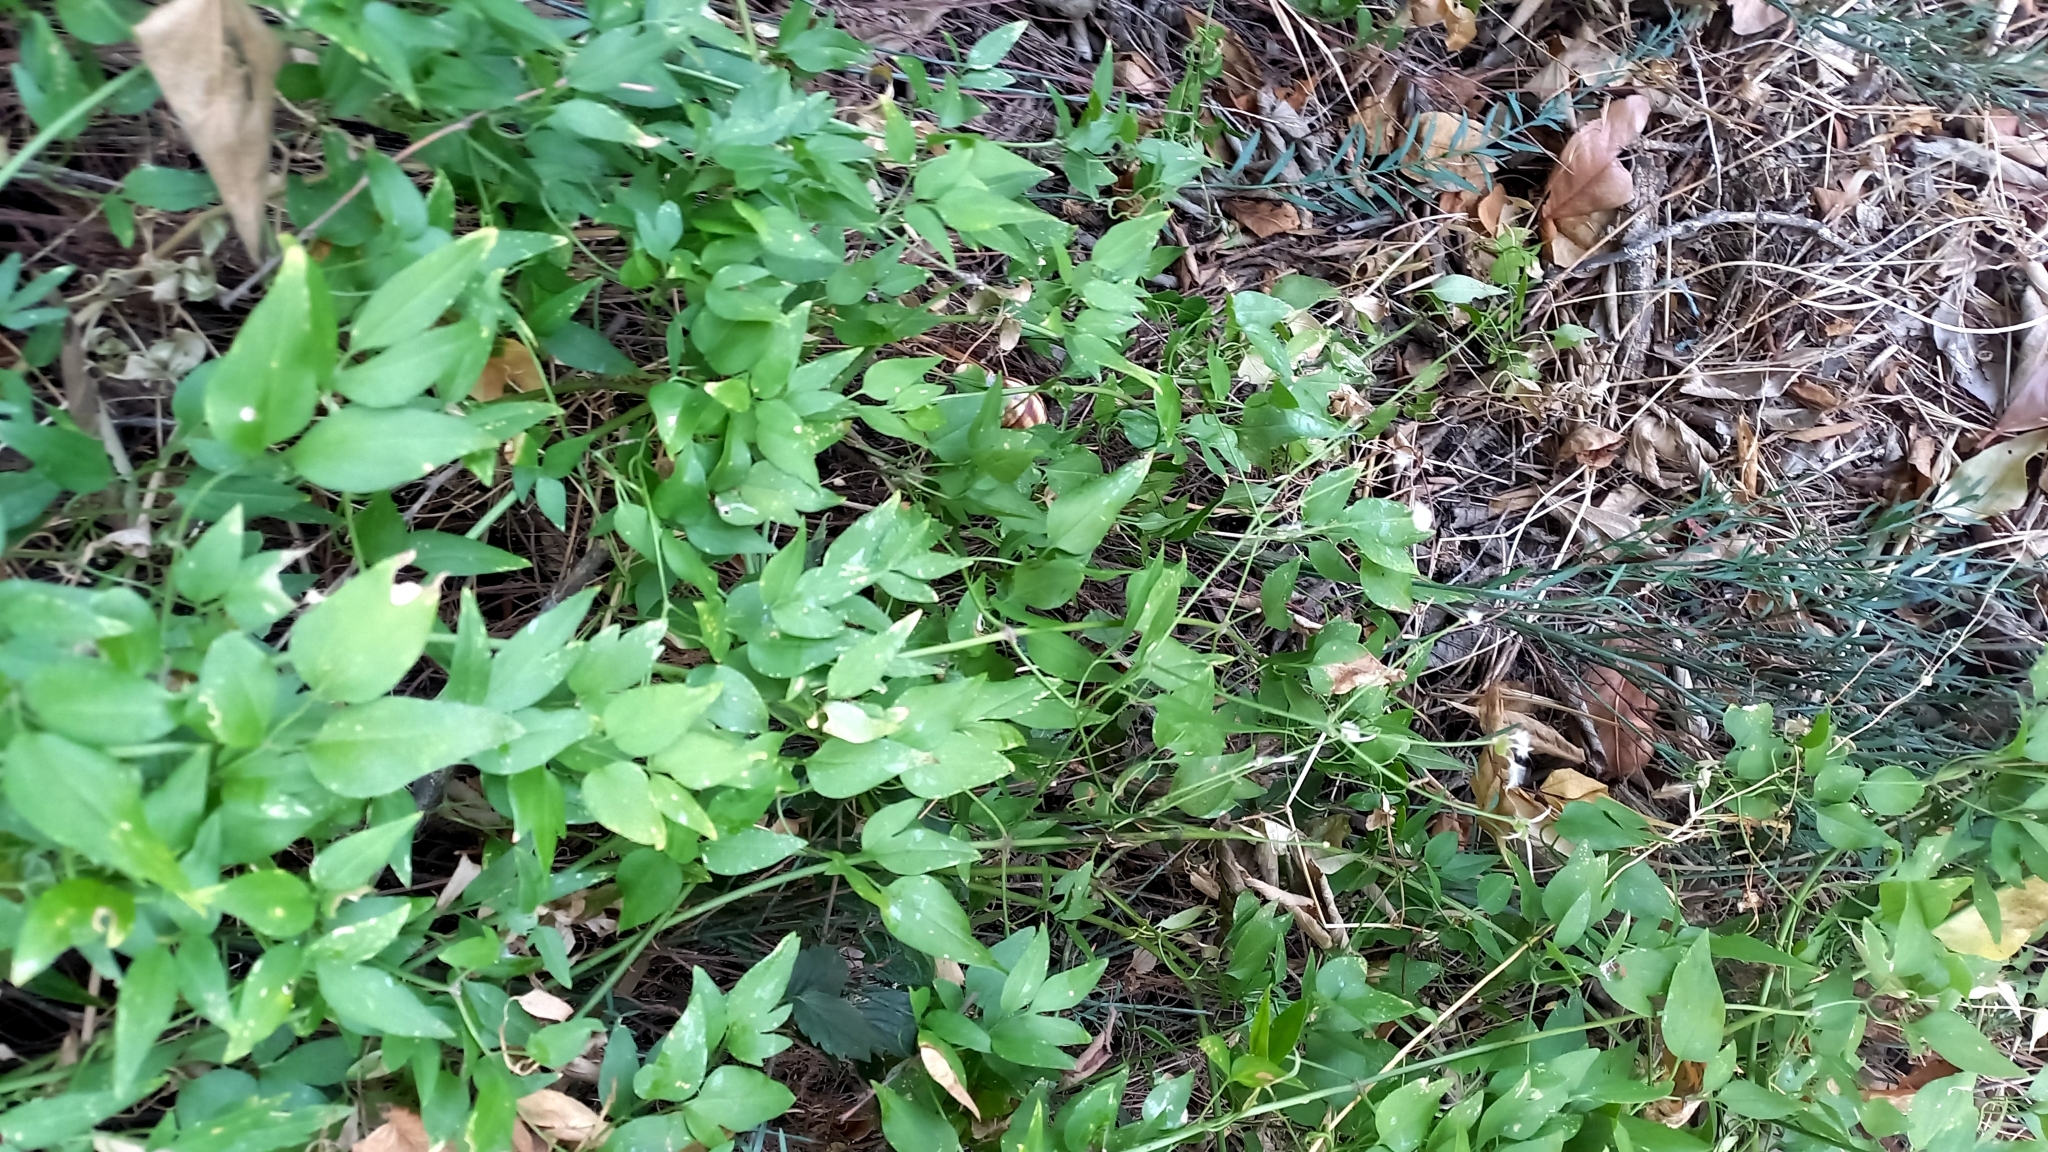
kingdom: Plantae
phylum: Tracheophyta
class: Magnoliopsida
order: Ranunculales
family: Ranunculaceae
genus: Clematis
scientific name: Clematis flammula
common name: Virgin's-bower
